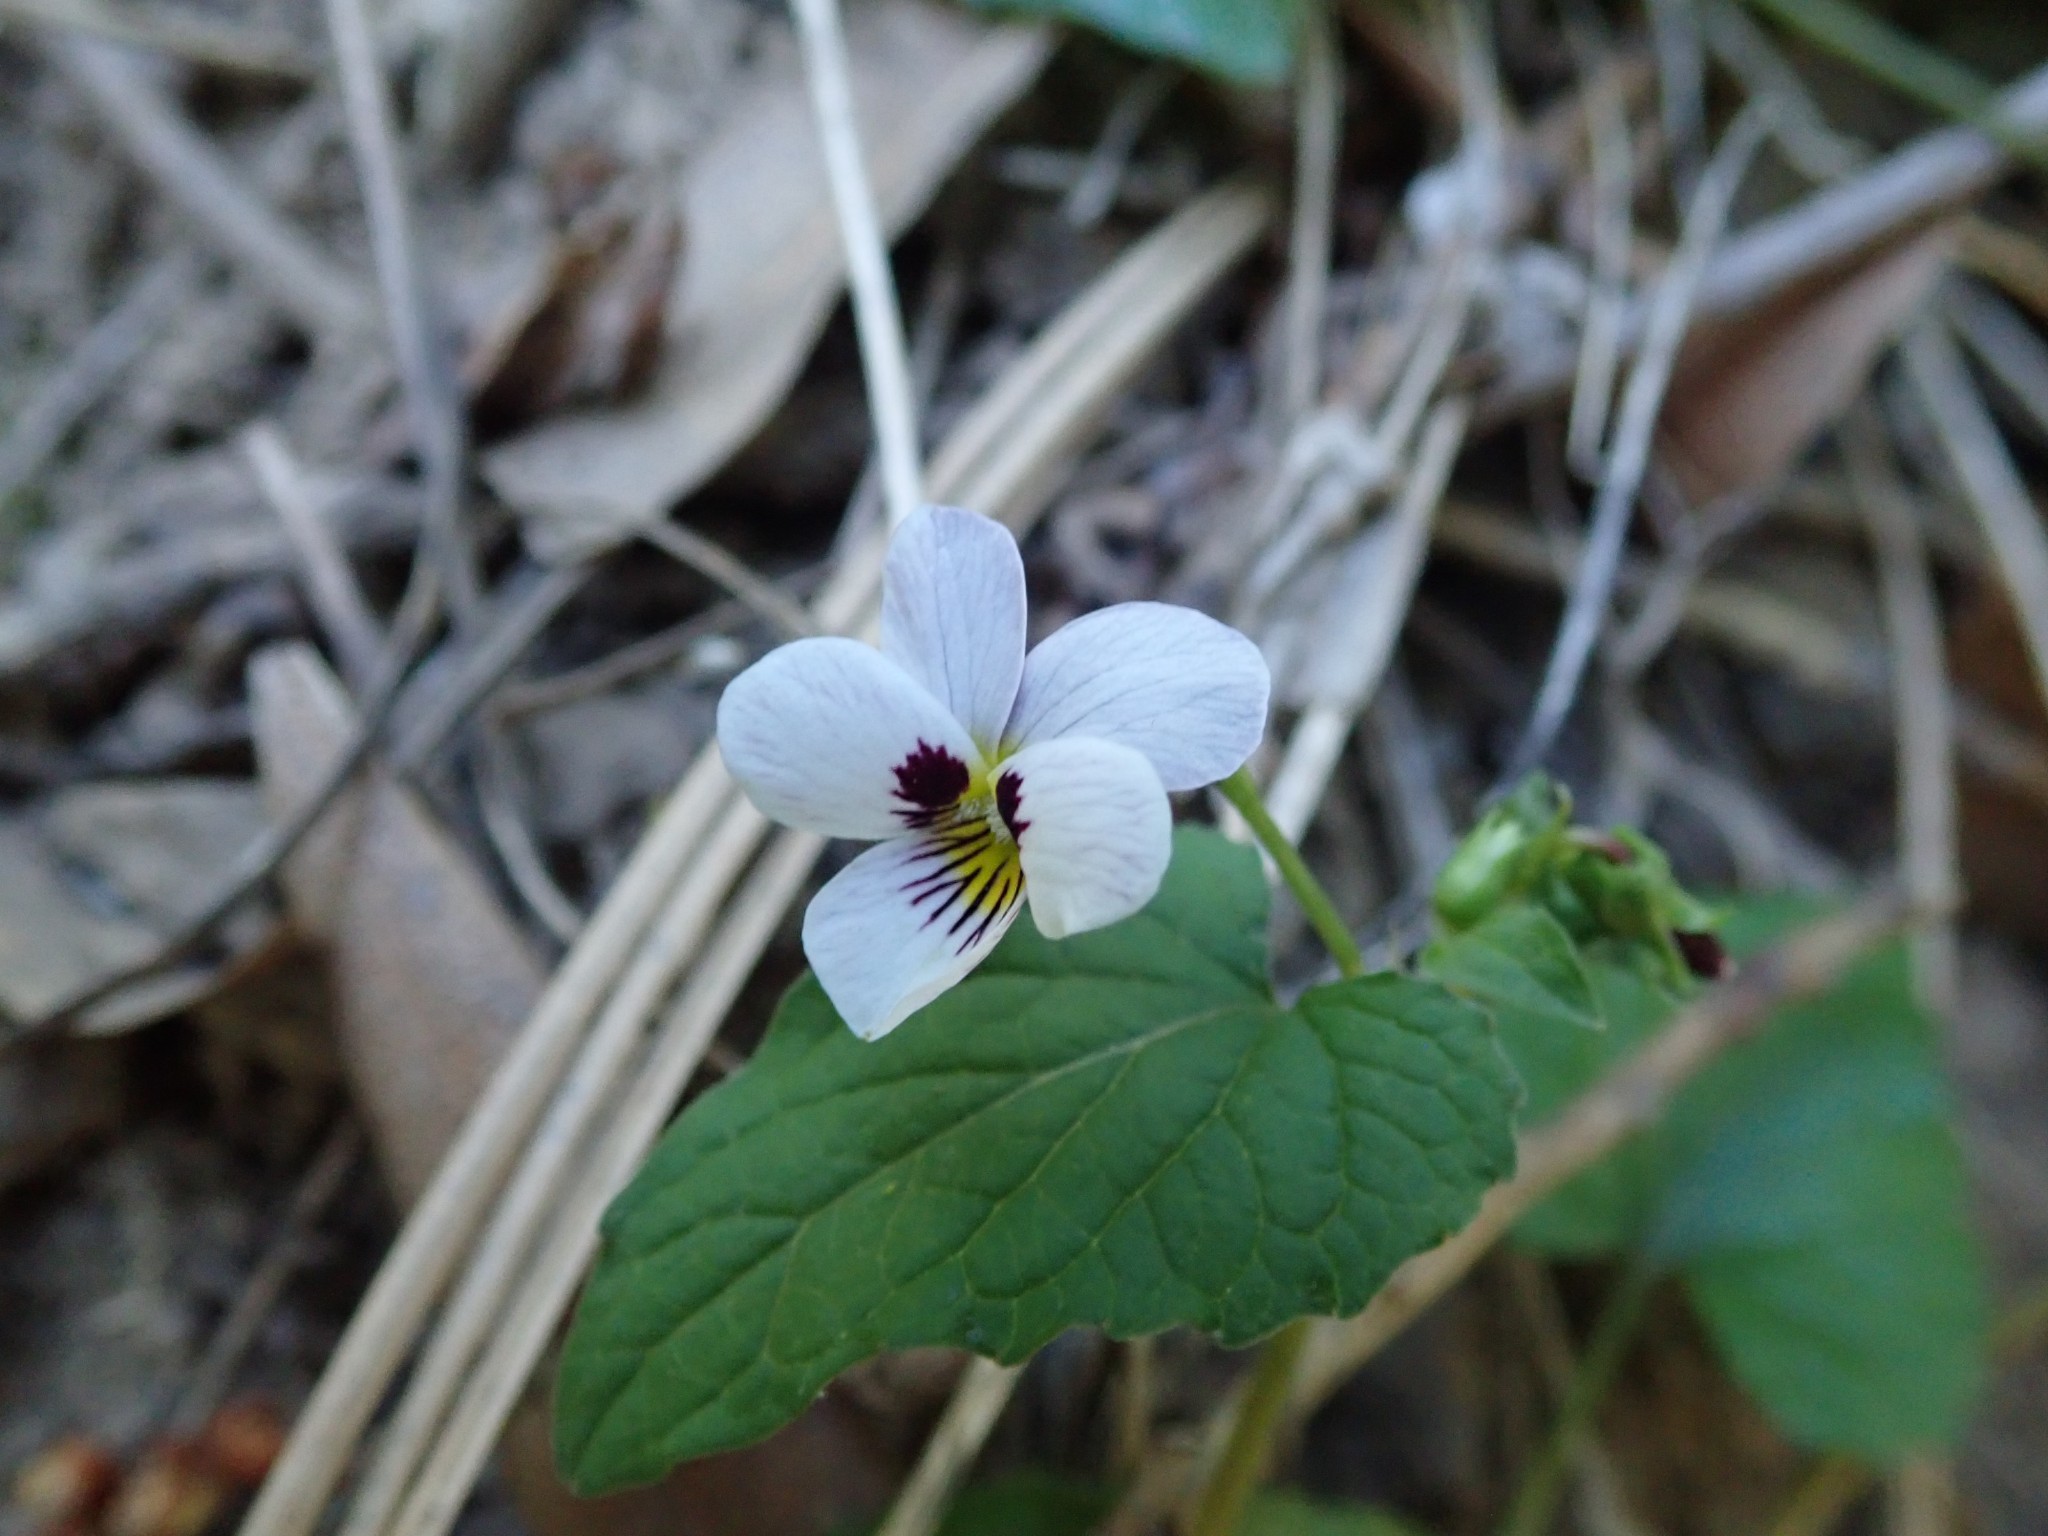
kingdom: Plantae
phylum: Tracheophyta
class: Magnoliopsida
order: Malpighiales
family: Violaceae
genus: Viola
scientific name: Viola ocellata
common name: Western heart's ease
